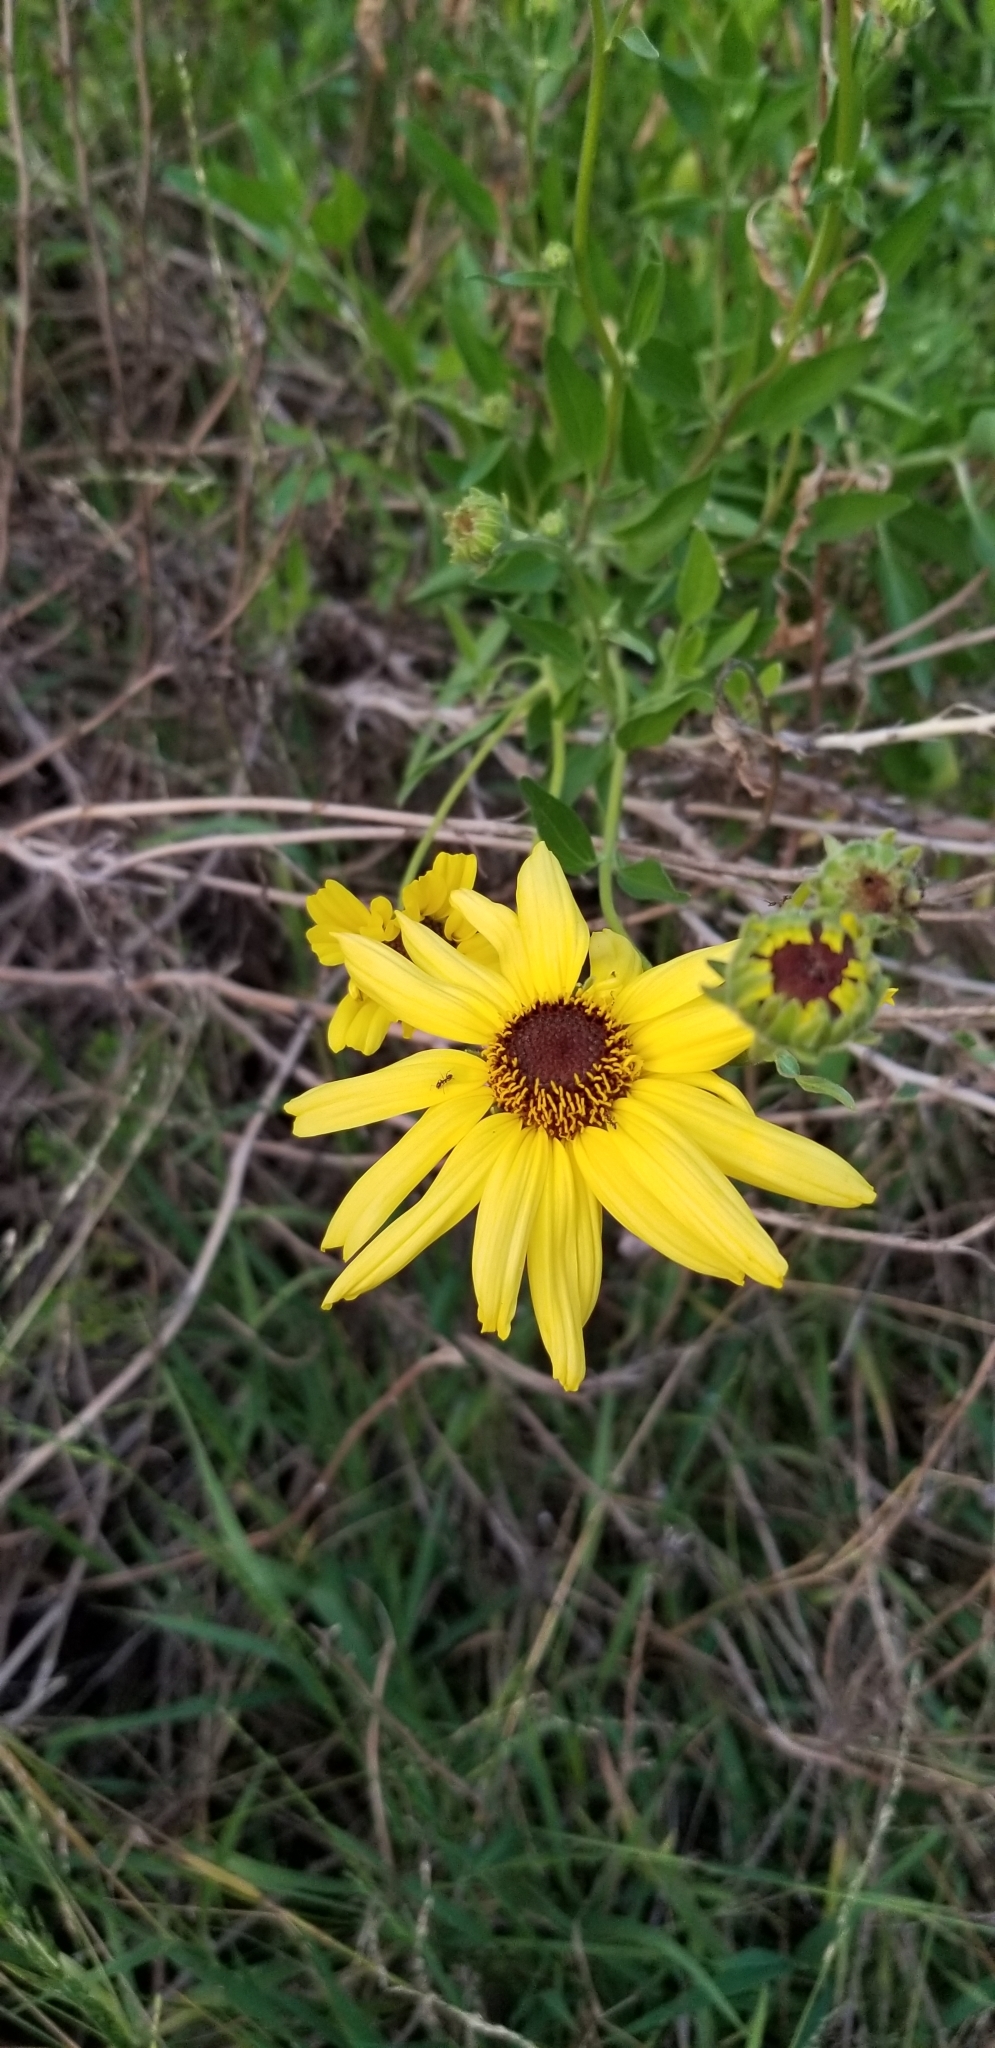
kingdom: Plantae
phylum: Tracheophyta
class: Magnoliopsida
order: Asterales
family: Asteraceae
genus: Encelia
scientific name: Encelia californica
